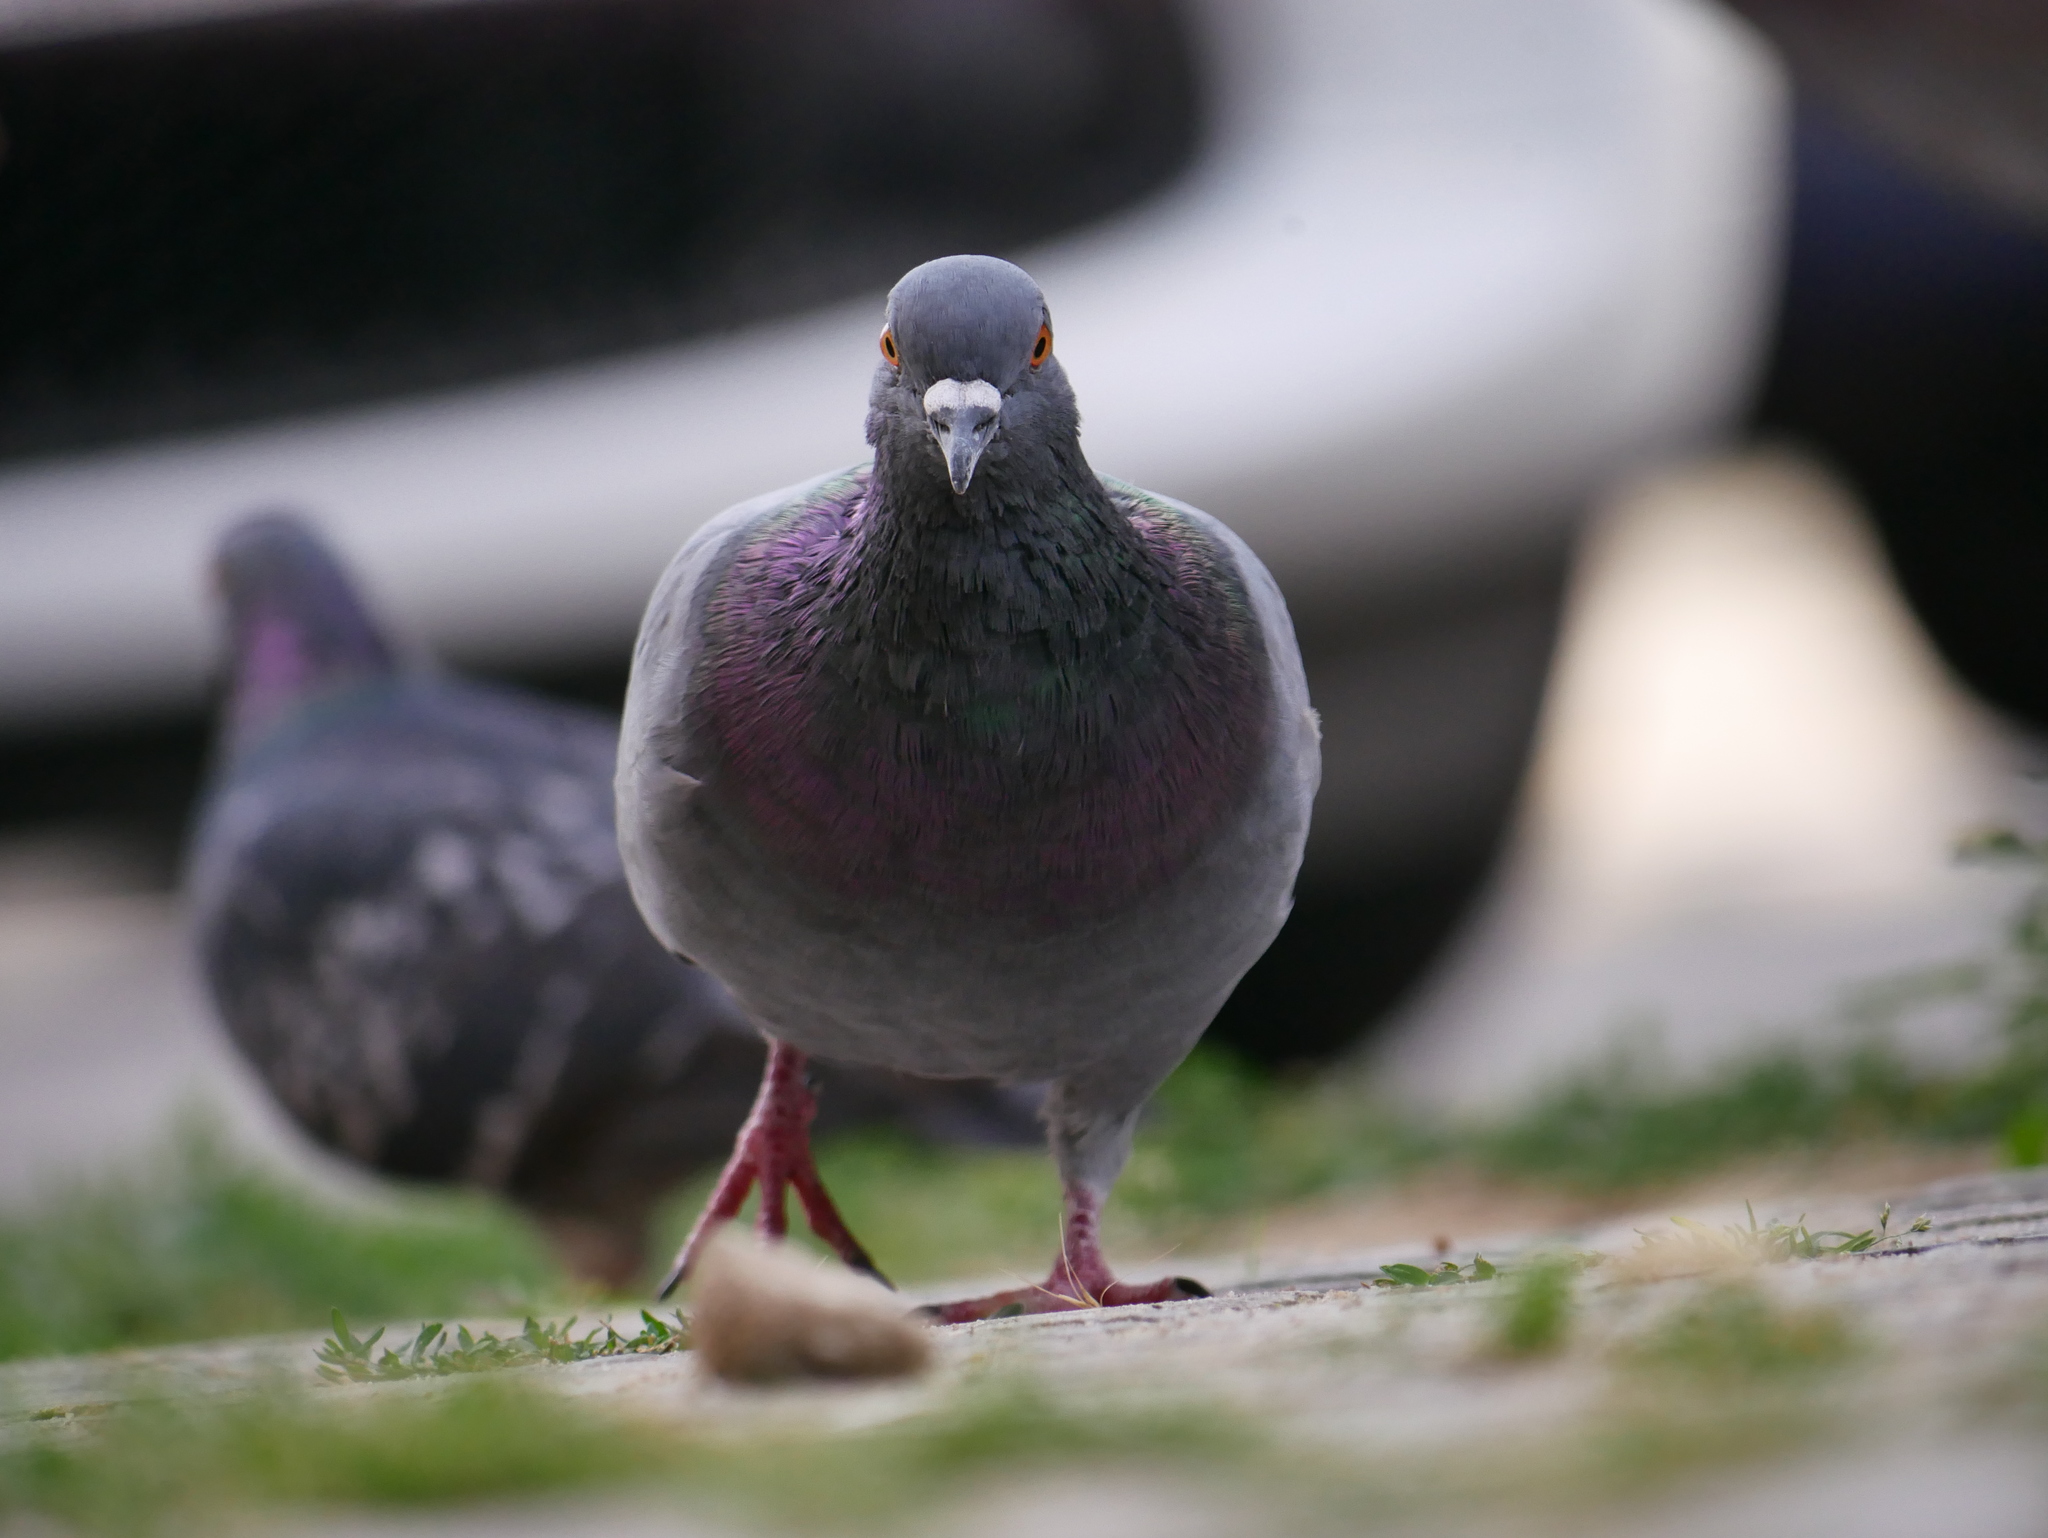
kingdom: Animalia
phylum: Chordata
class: Aves
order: Columbiformes
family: Columbidae
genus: Columba
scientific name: Columba livia
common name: Rock pigeon
